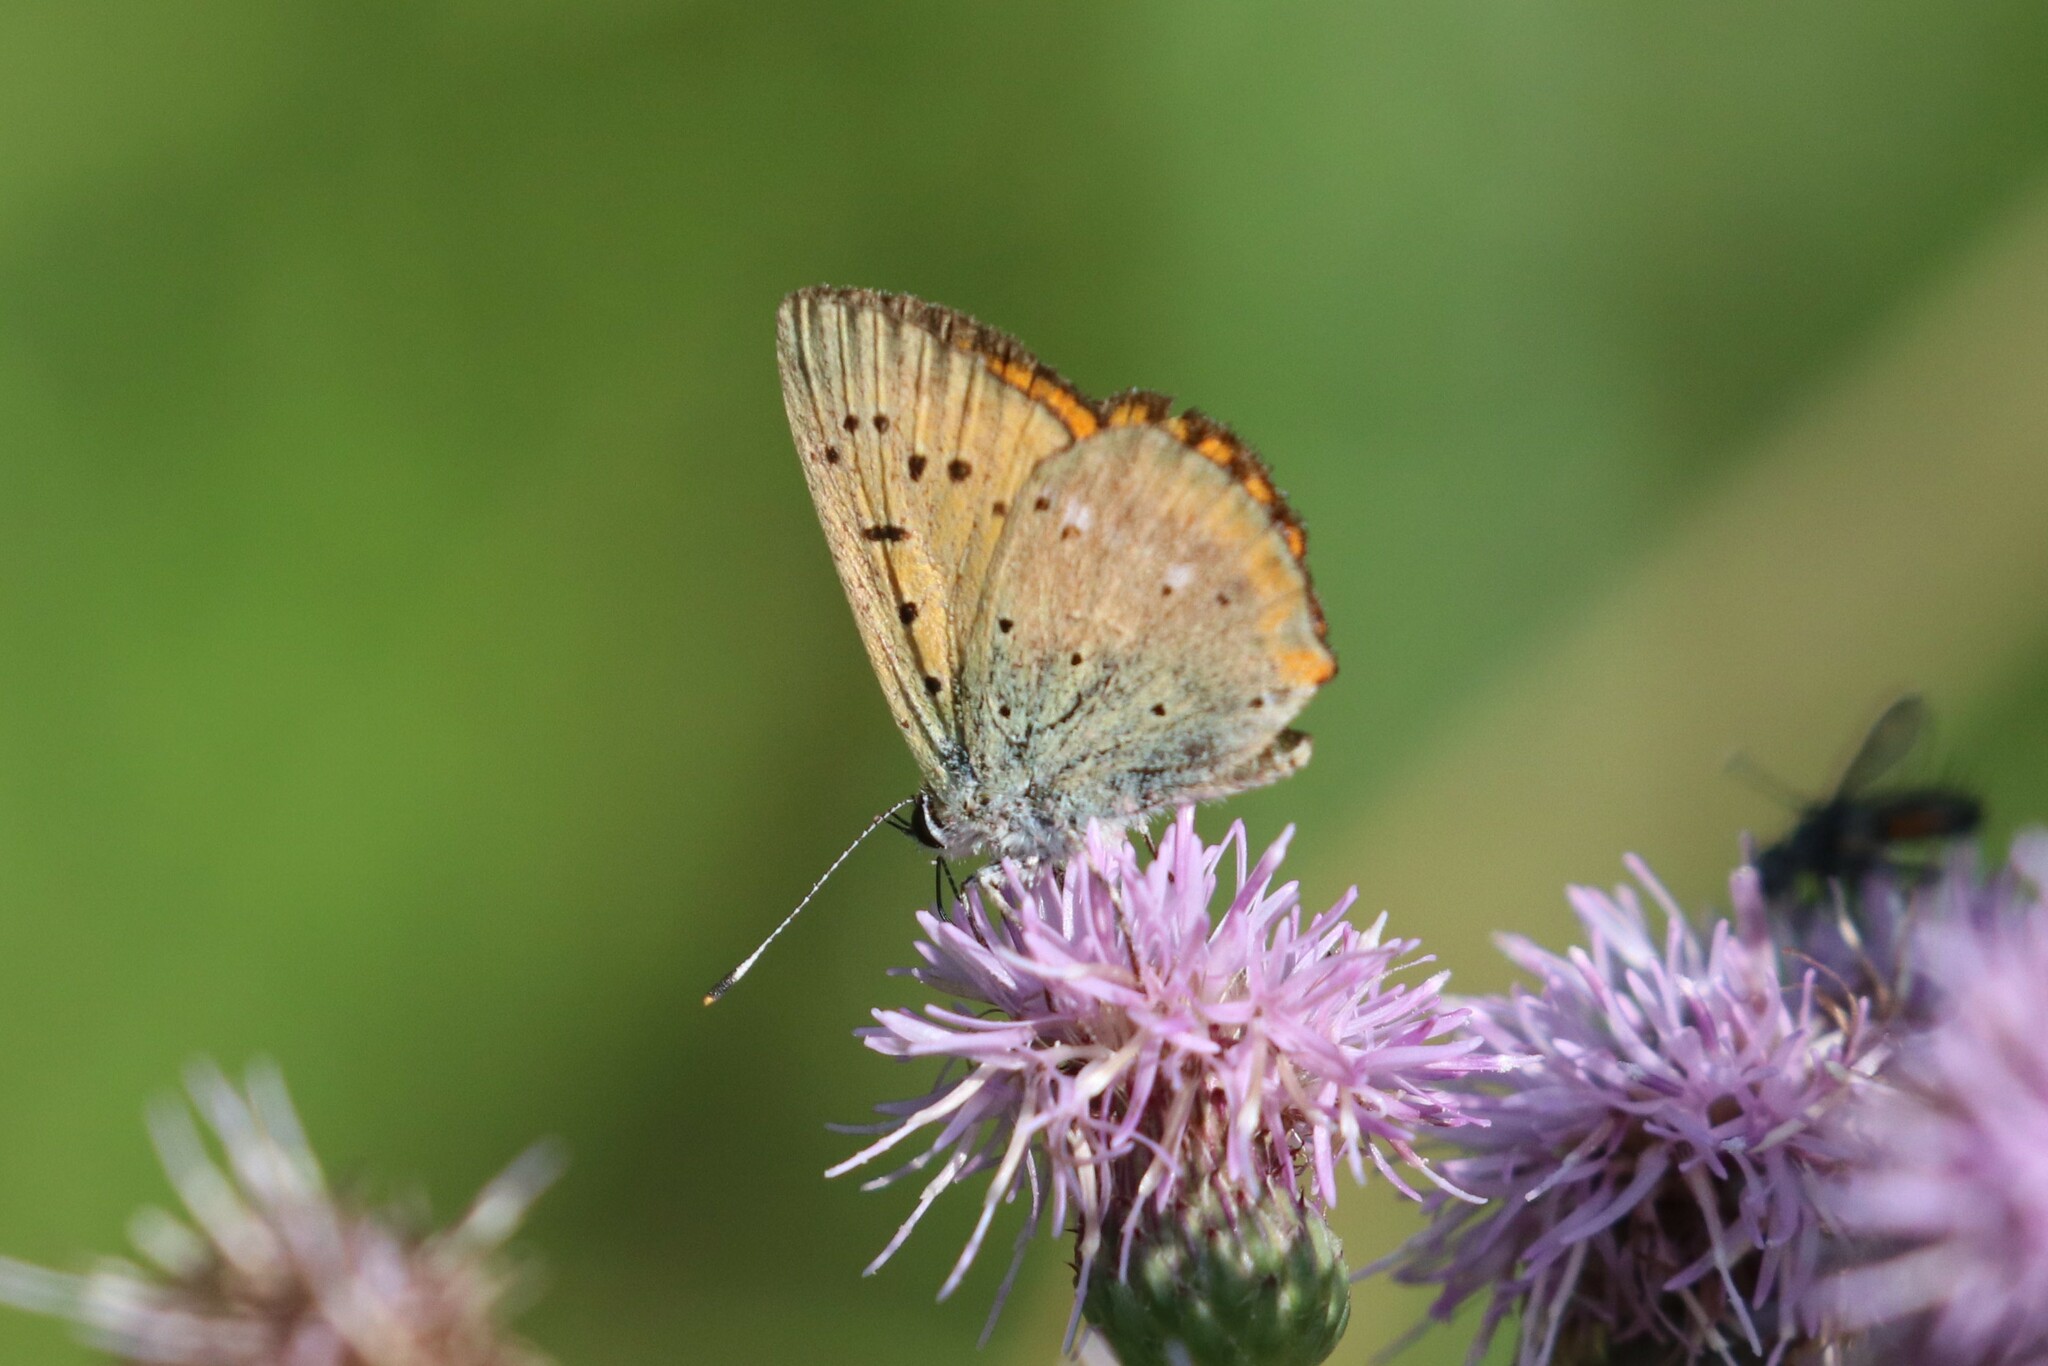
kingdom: Animalia
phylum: Arthropoda
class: Insecta
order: Lepidoptera
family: Lycaenidae
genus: Lycaena
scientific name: Lycaena virgaureae
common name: Scarce copper
